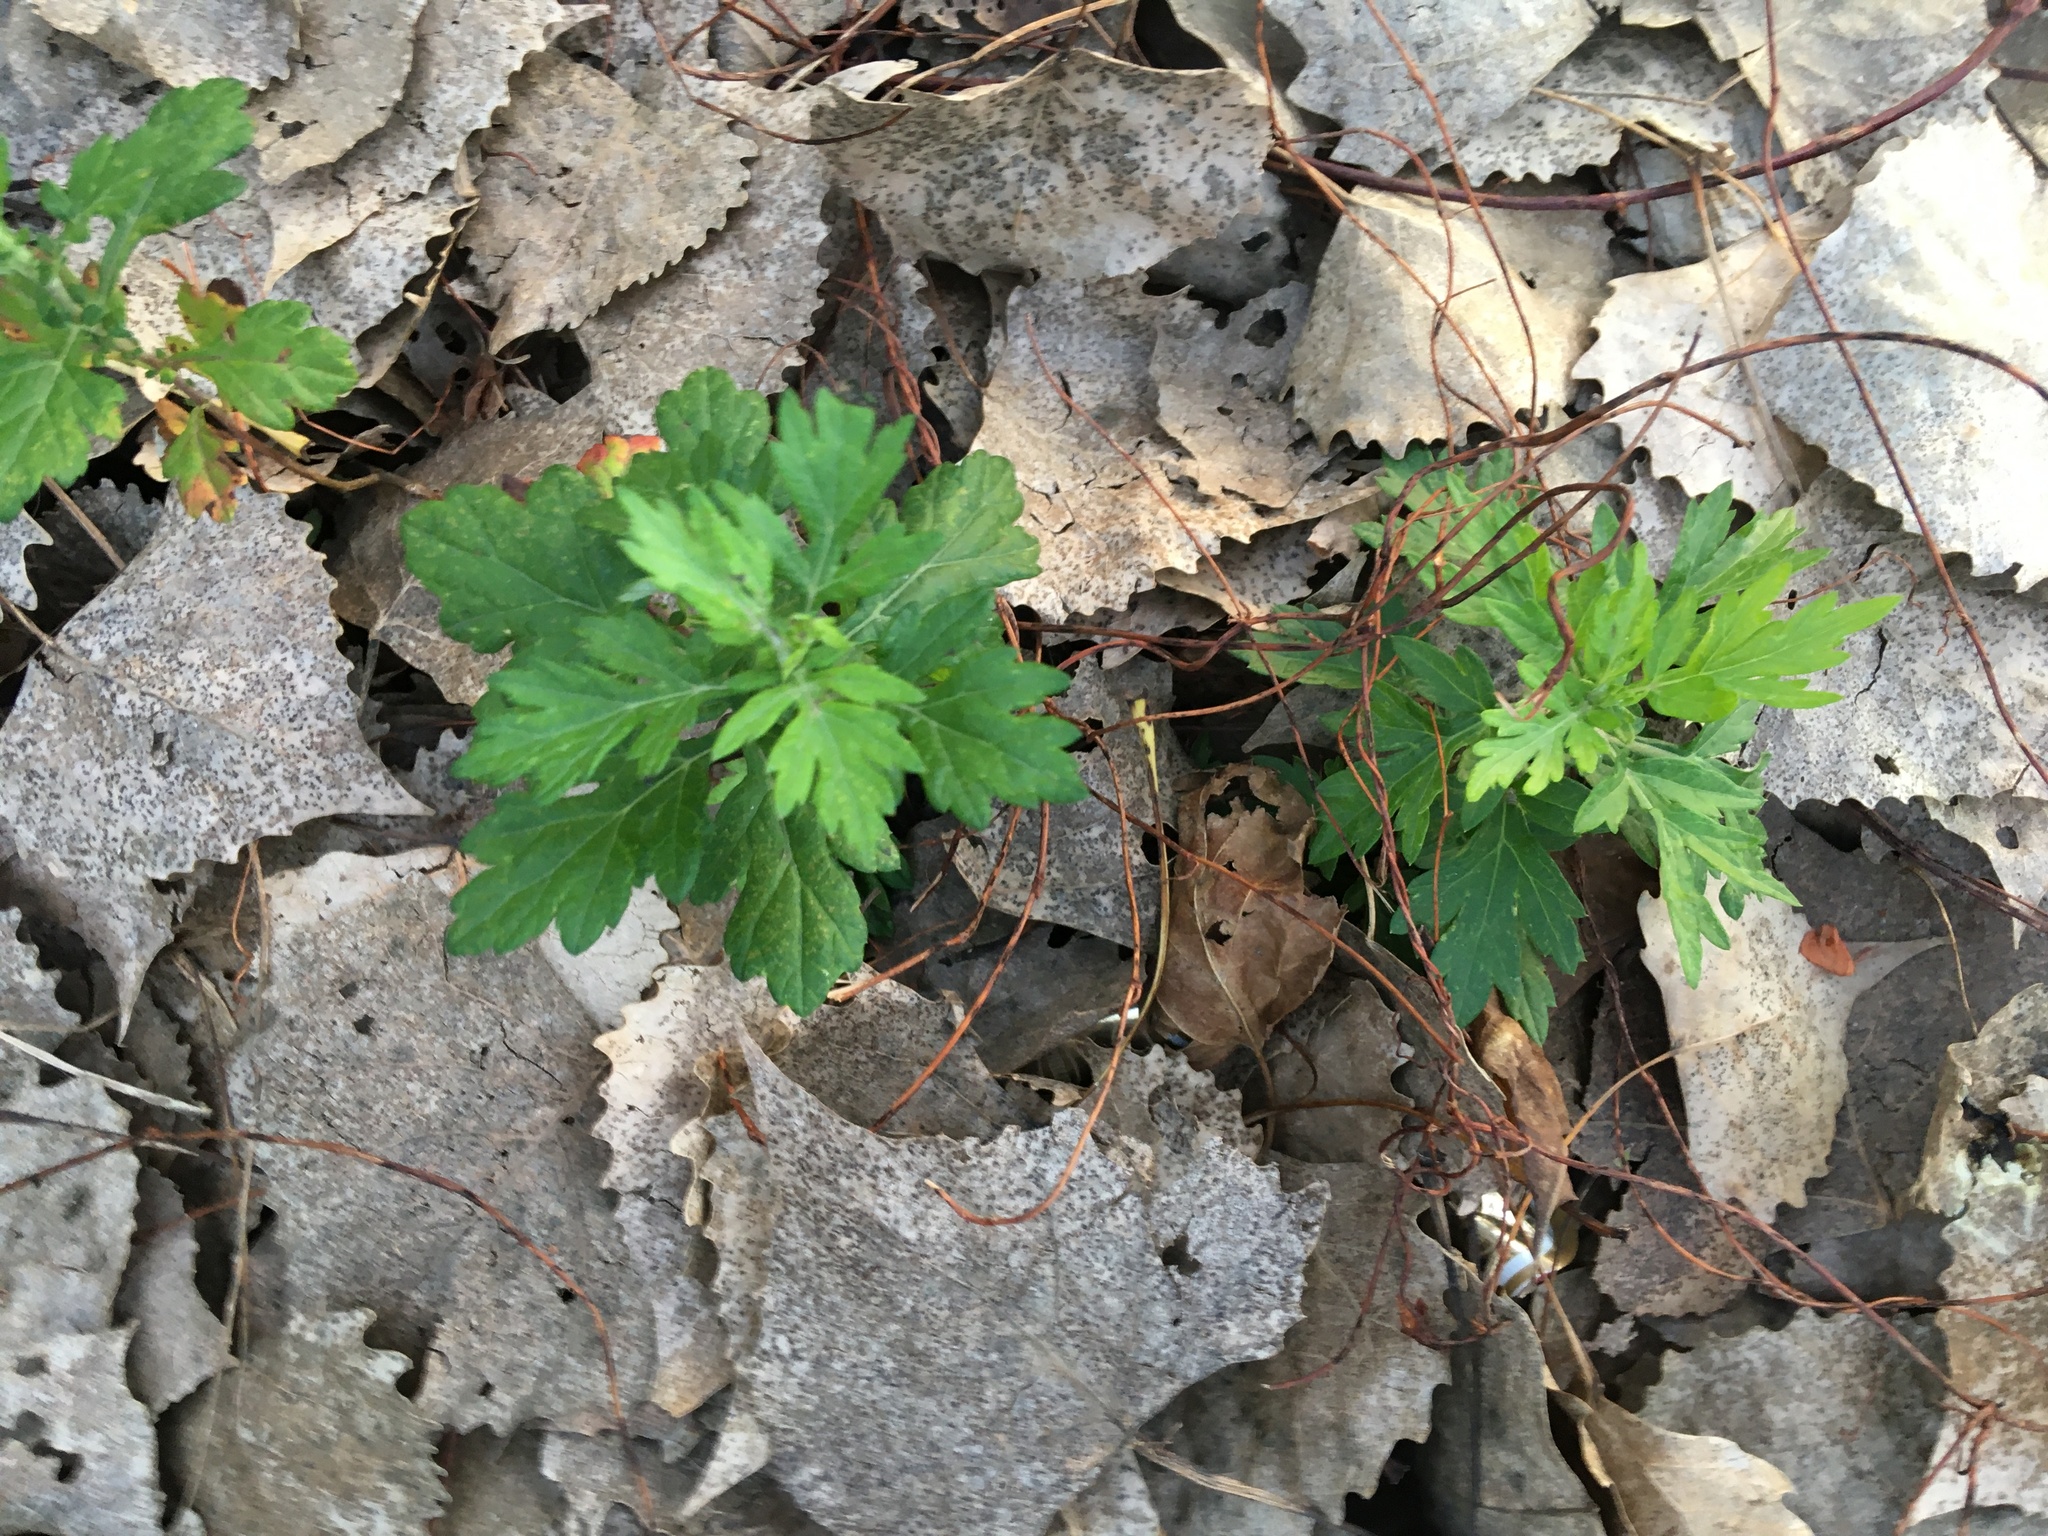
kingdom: Plantae
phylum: Tracheophyta
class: Magnoliopsida
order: Asterales
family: Asteraceae
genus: Artemisia
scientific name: Artemisia vulgaris
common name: Mugwort
